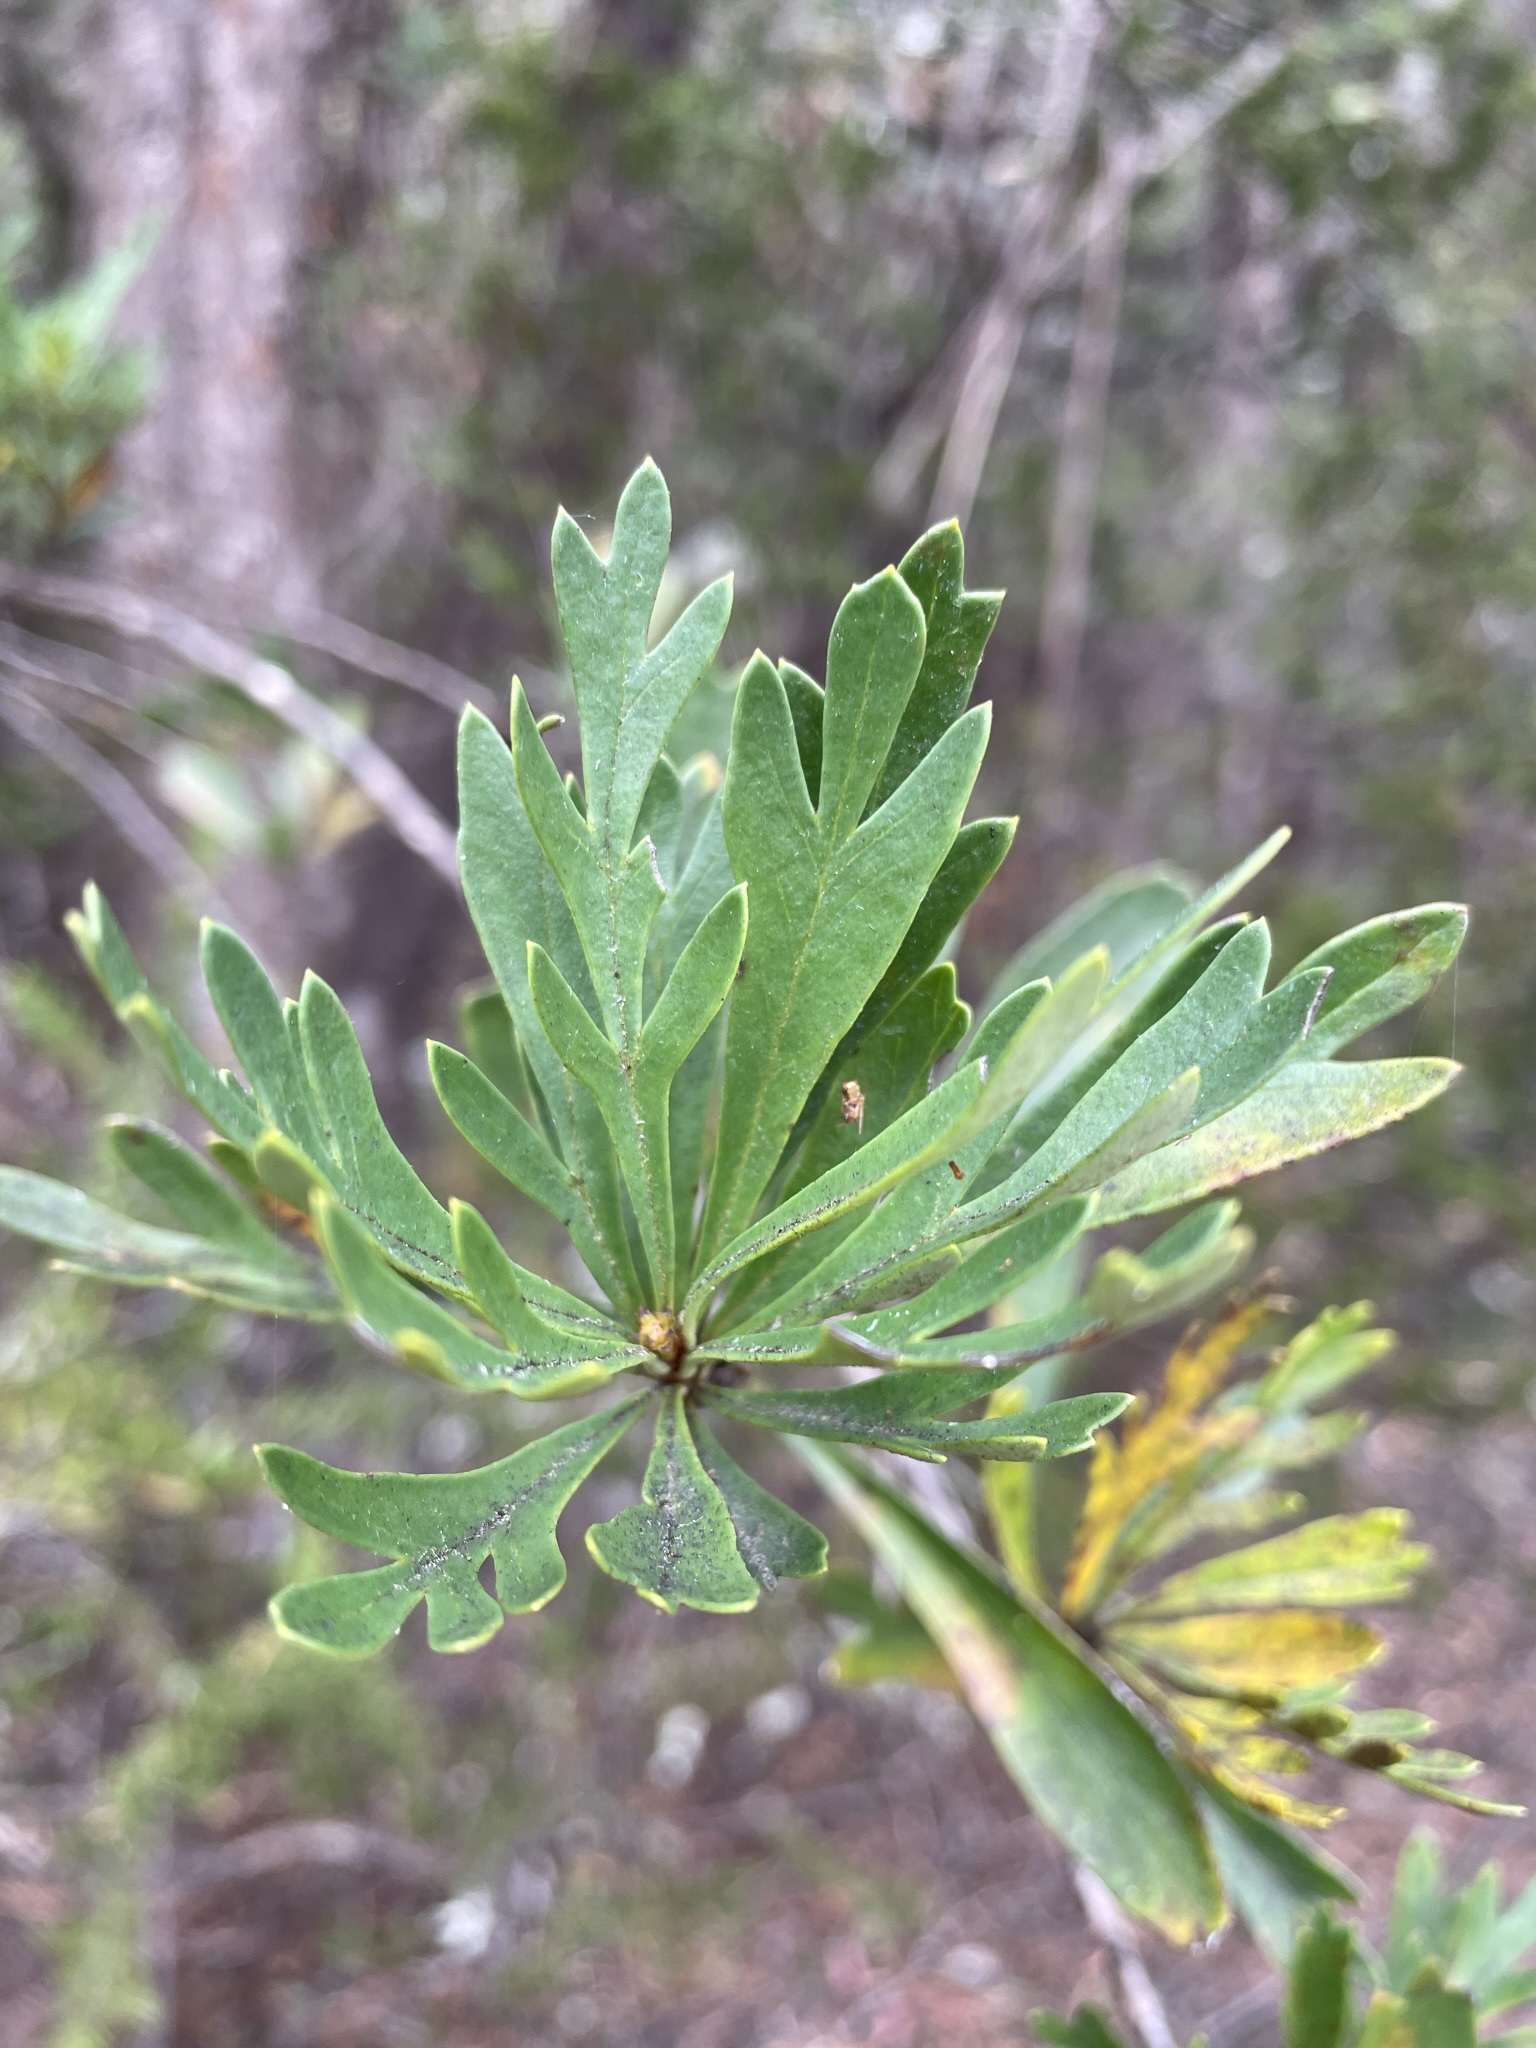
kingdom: Plantae
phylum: Tracheophyta
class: Magnoliopsida
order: Proteales
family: Proteaceae
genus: Lomatia
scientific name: Lomatia polymorpha
